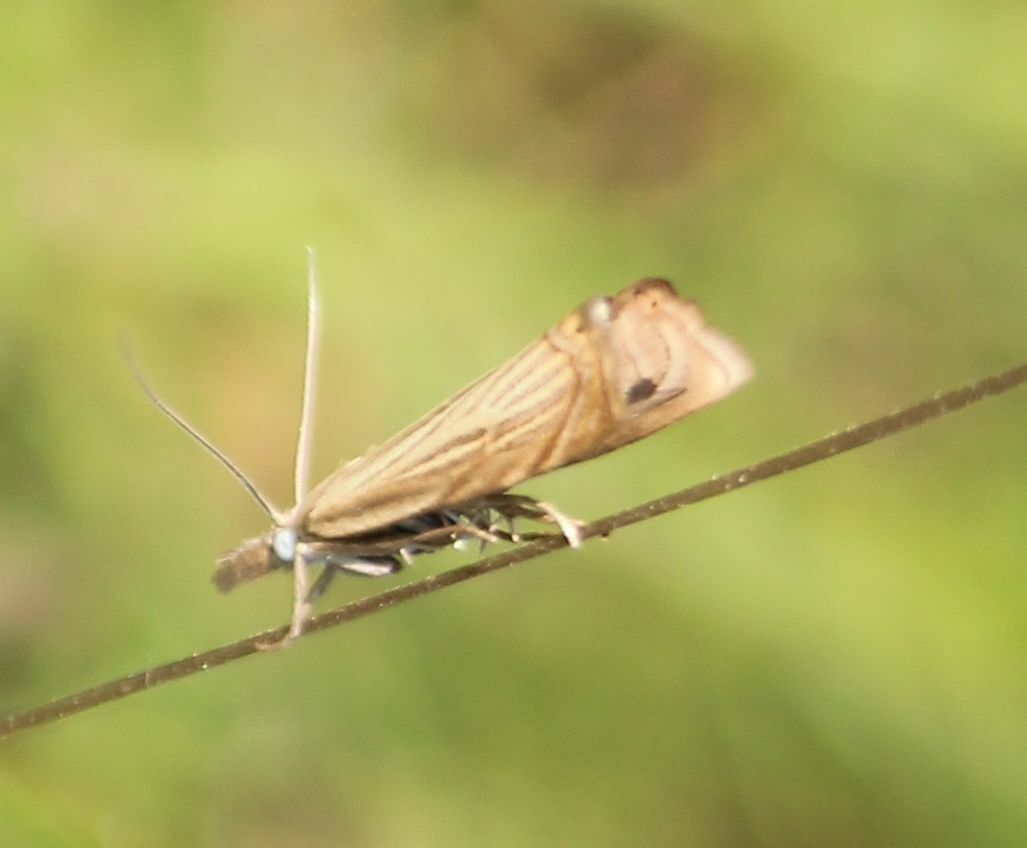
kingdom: Animalia
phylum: Arthropoda
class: Insecta
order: Lepidoptera
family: Crambidae
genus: Chrysoteuchia
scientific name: Chrysoteuchia culmella
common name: Garden grass-veneer
